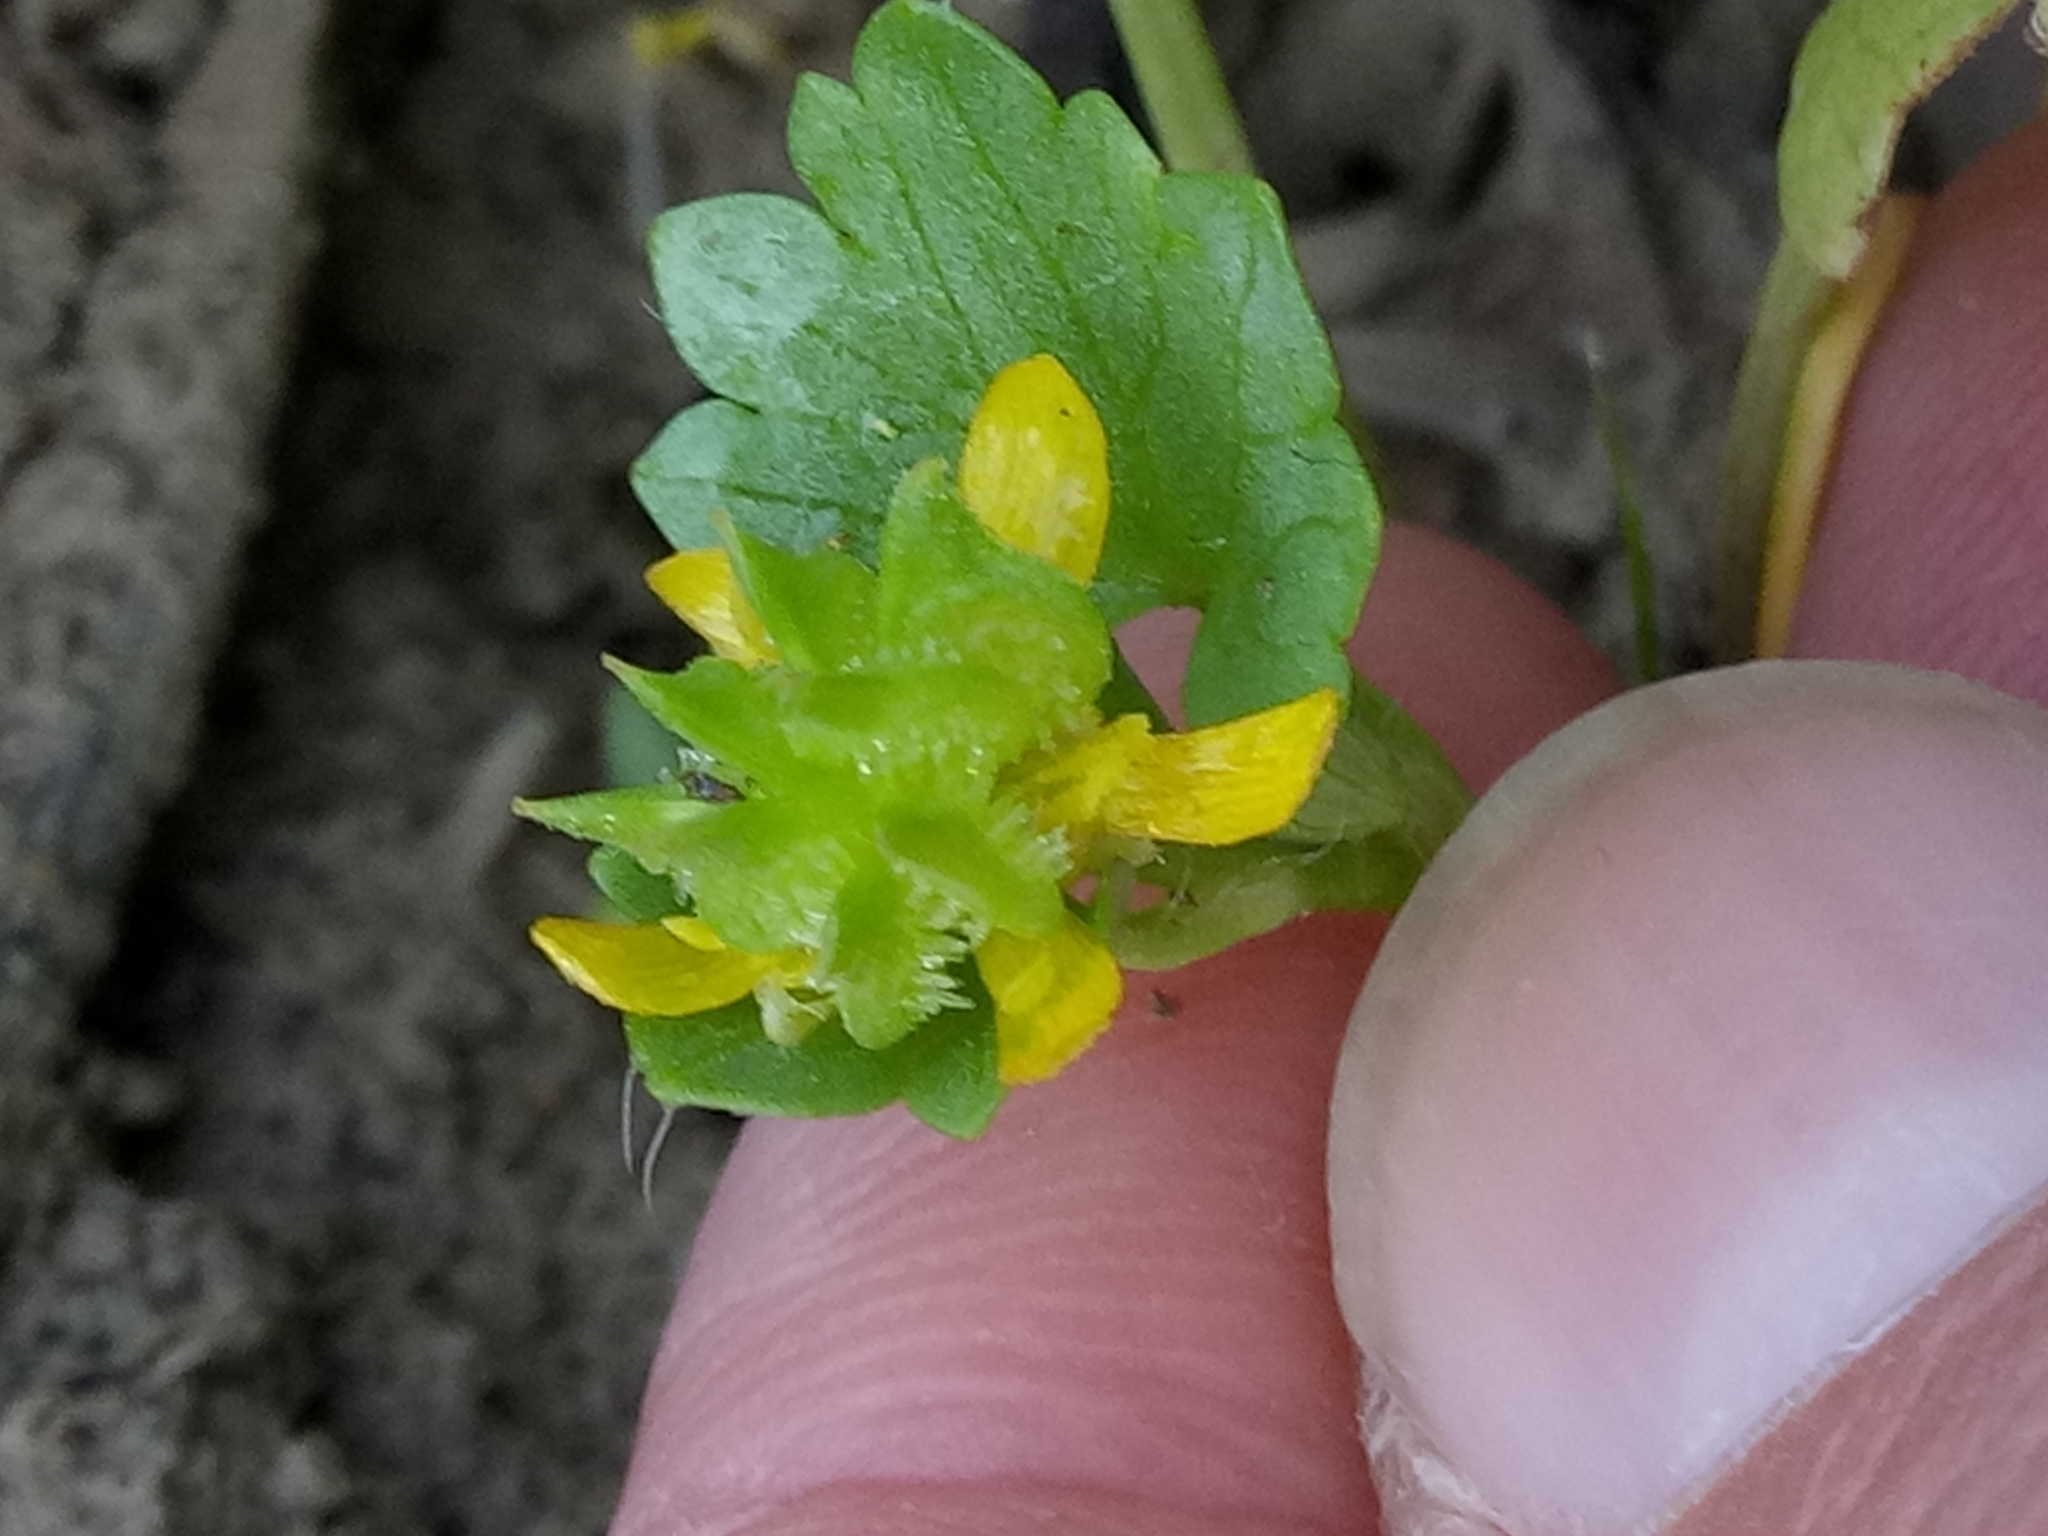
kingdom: Plantae
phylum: Tracheophyta
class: Magnoliopsida
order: Ranunculales
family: Ranunculaceae
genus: Ranunculus
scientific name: Ranunculus muricatus
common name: Rough-fruited buttercup
